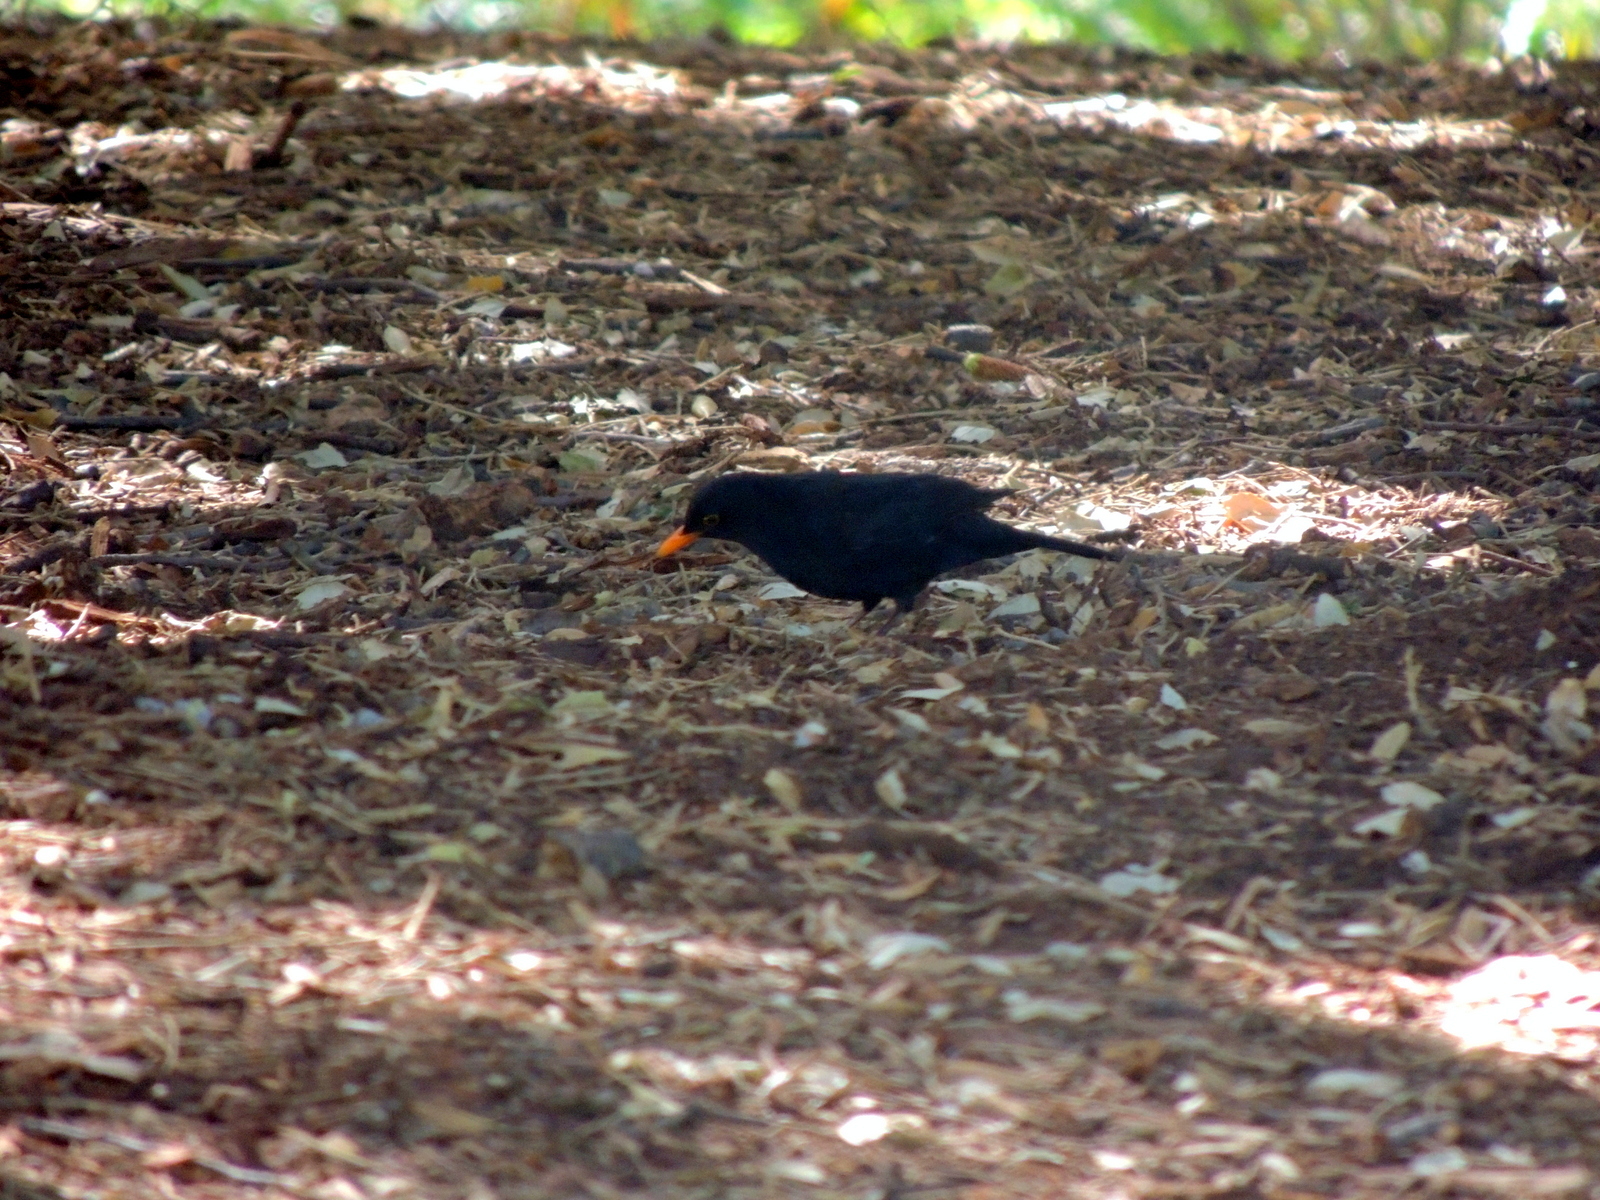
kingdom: Animalia
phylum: Chordata
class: Aves
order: Passeriformes
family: Turdidae
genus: Turdus
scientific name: Turdus merula
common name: Common blackbird
